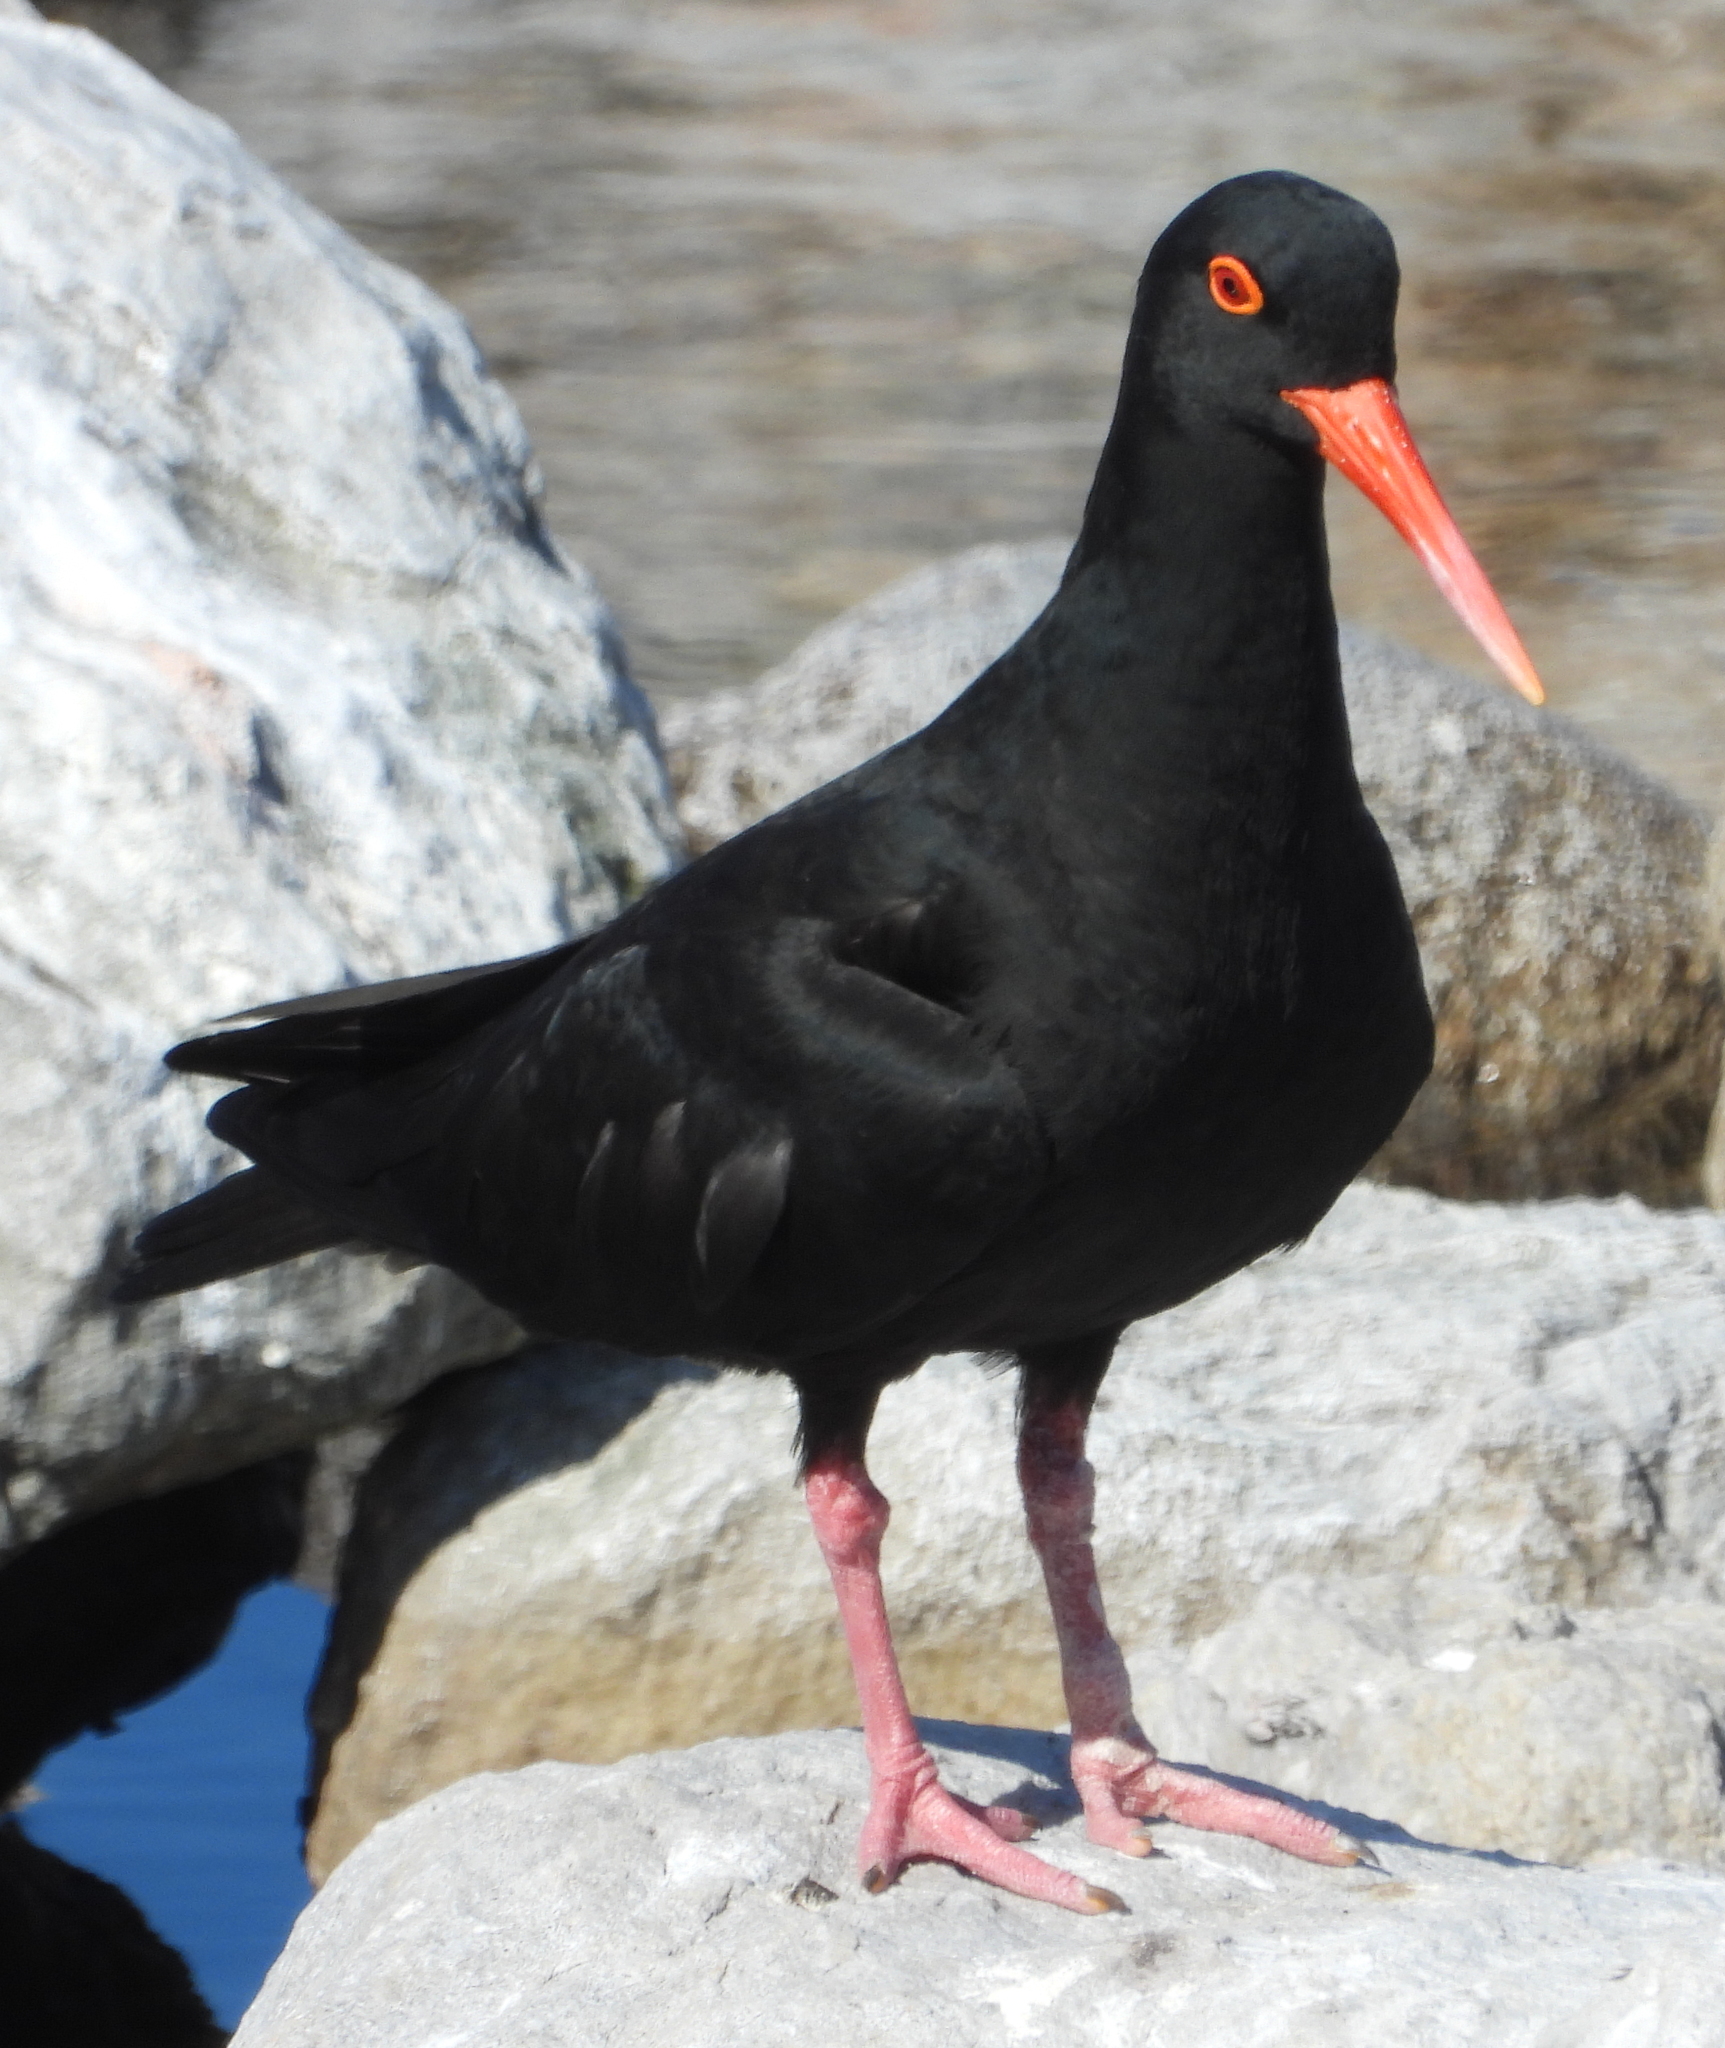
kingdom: Animalia
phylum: Chordata
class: Aves
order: Charadriiformes
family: Haematopodidae
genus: Haematopus
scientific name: Haematopus moquini
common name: African oystercatcher
